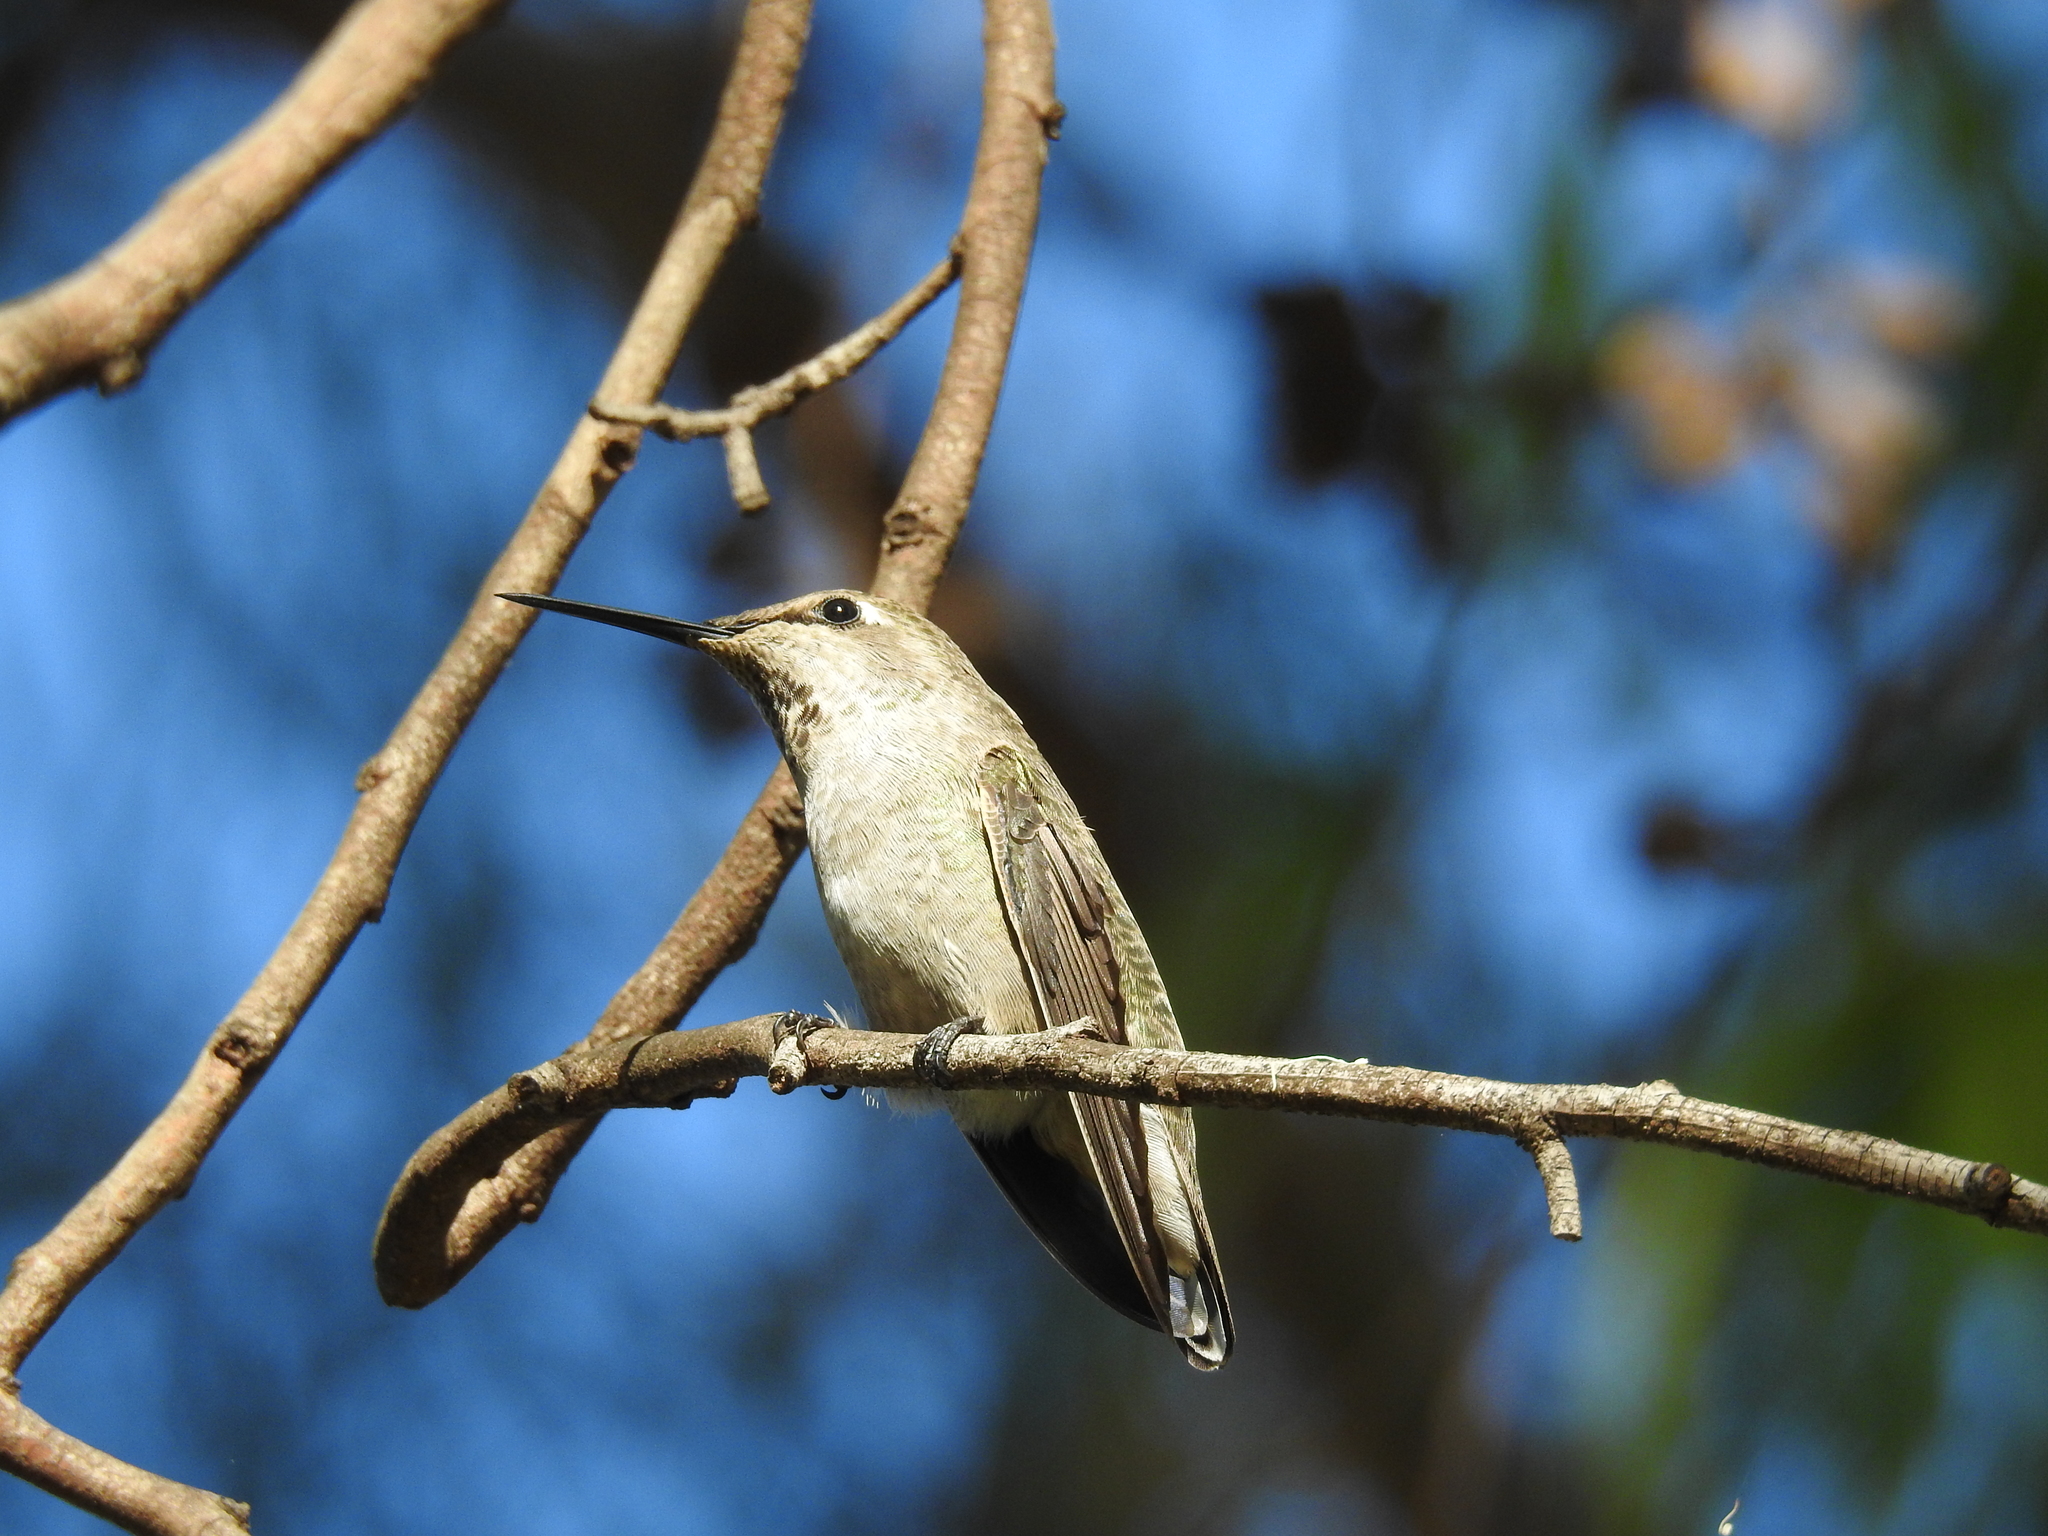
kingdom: Animalia
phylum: Chordata
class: Aves
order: Apodiformes
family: Trochilidae
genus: Calypte
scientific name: Calypte anna
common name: Anna's hummingbird
